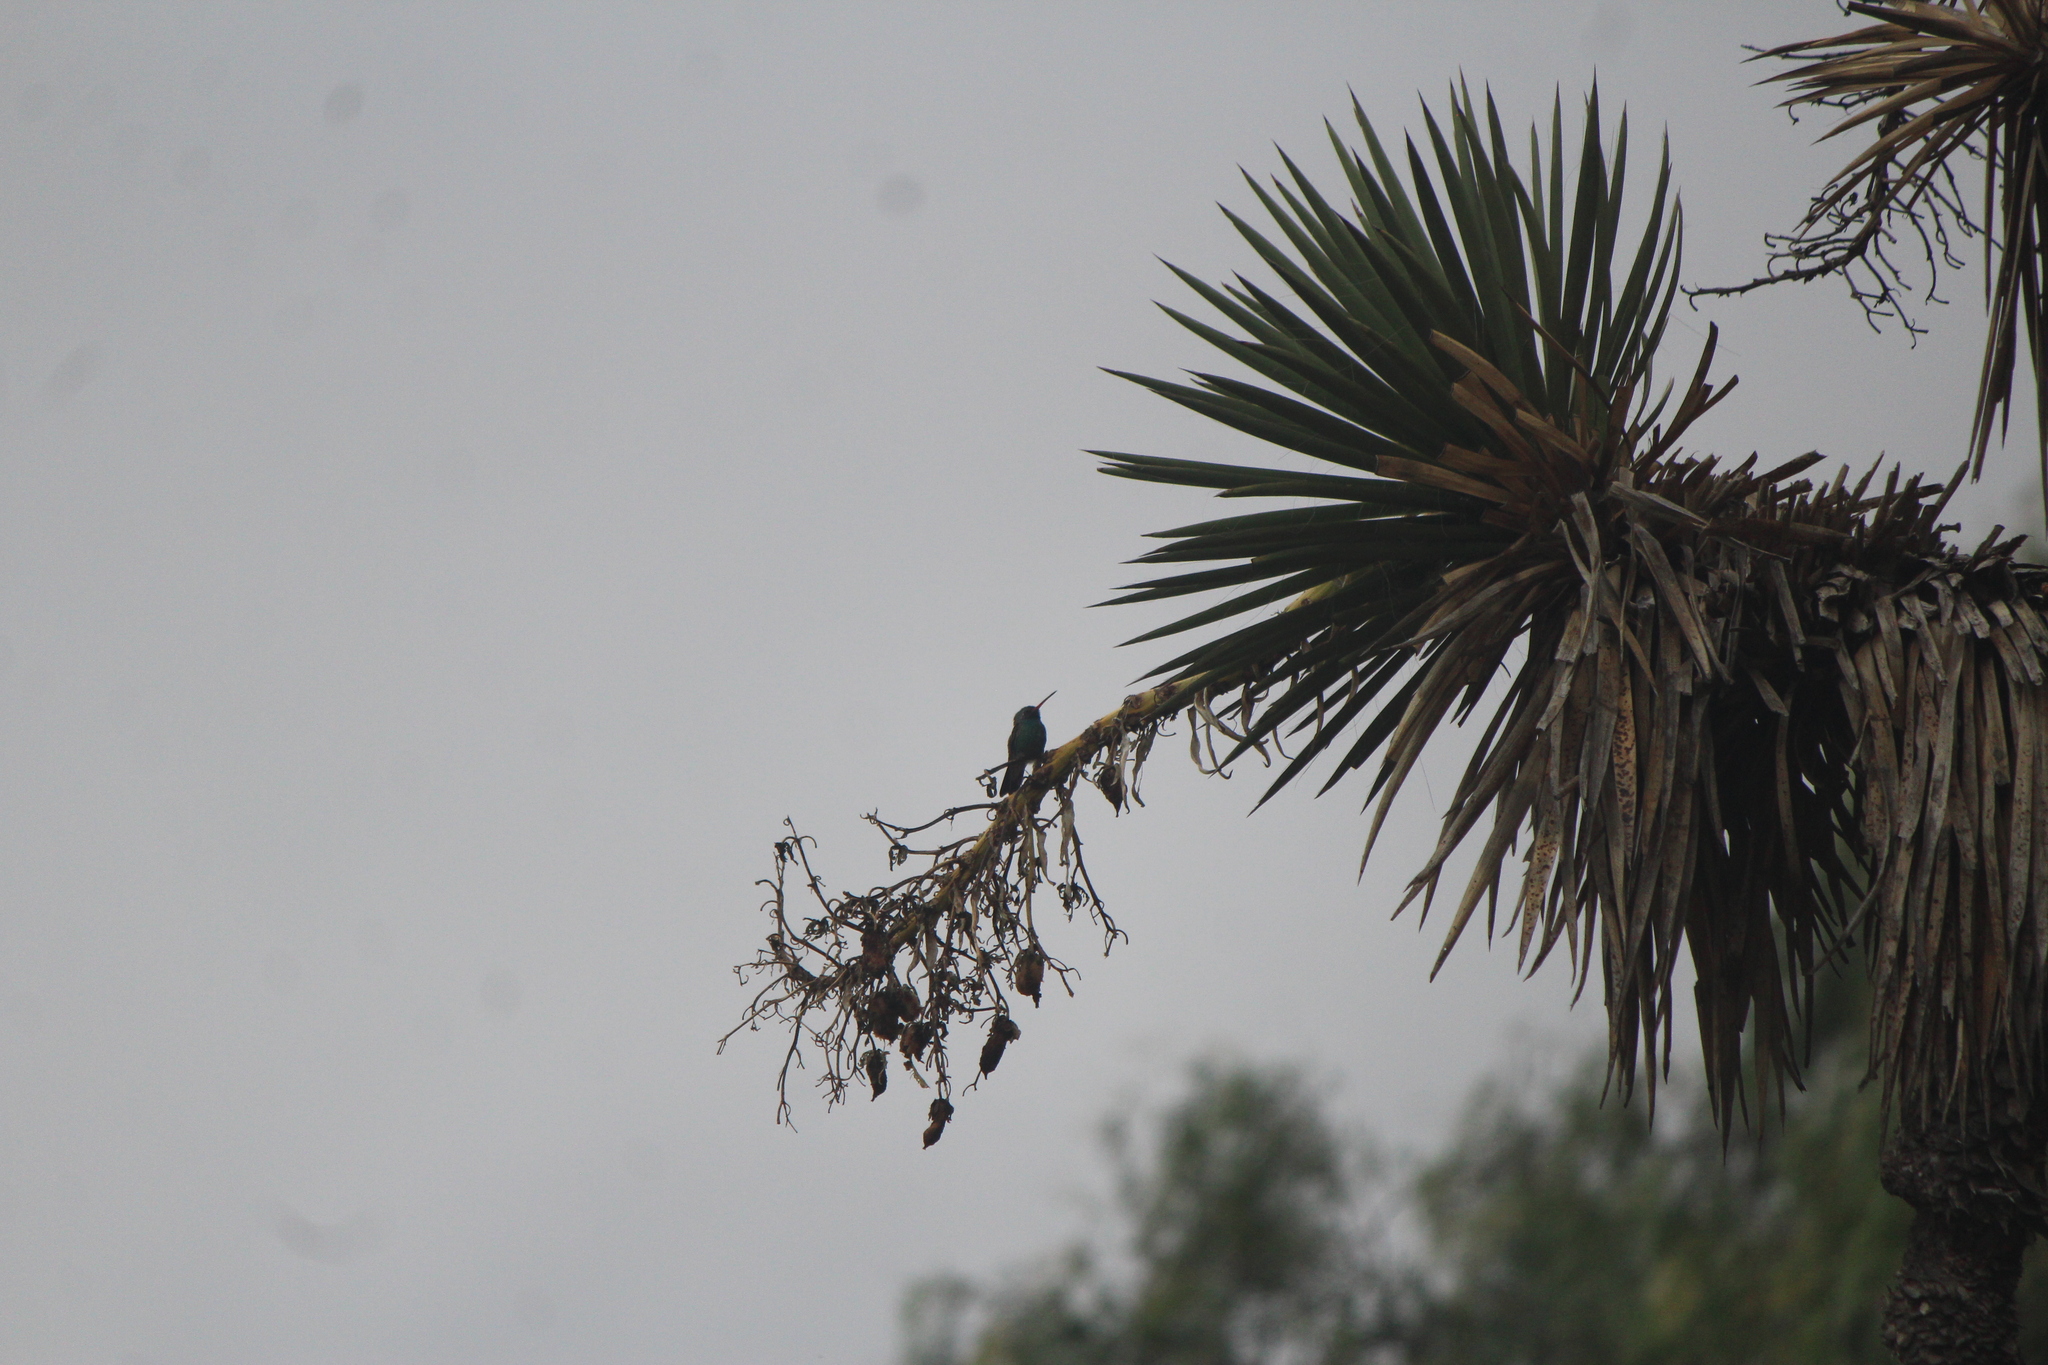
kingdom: Animalia
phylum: Chordata
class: Aves
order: Apodiformes
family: Trochilidae
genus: Cynanthus
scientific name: Cynanthus latirostris
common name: Broad-billed hummingbird
